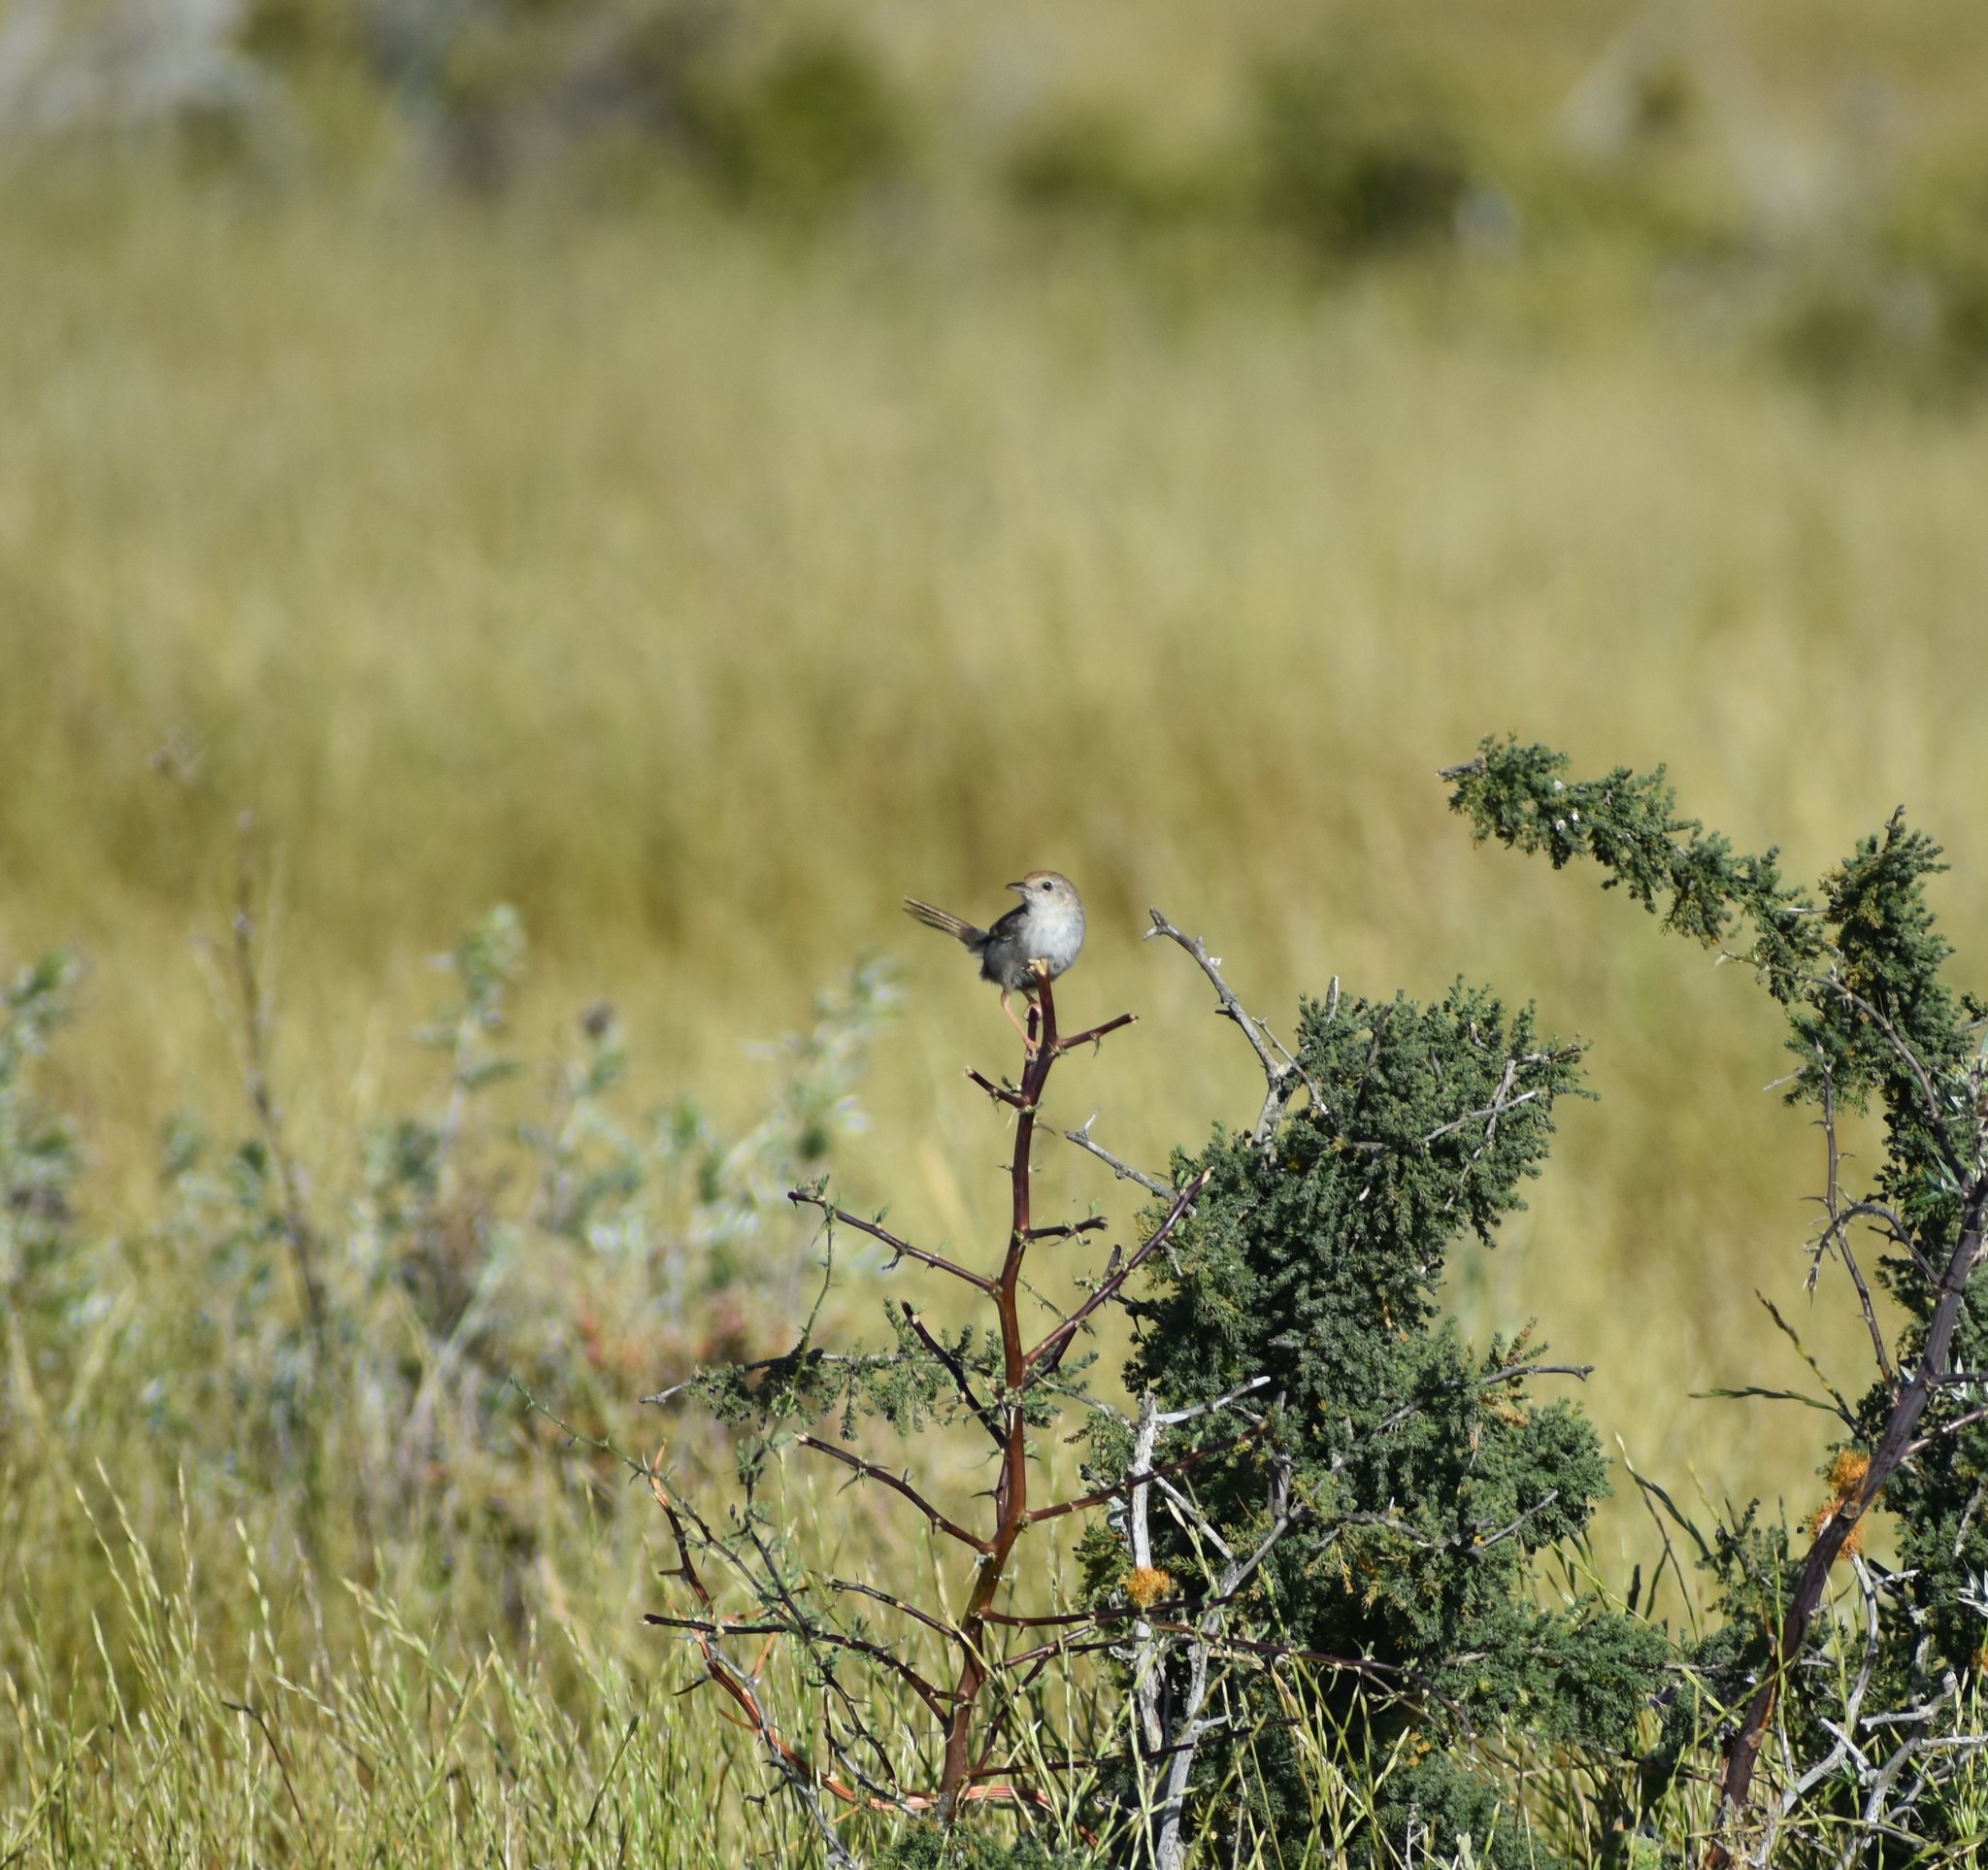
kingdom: Animalia
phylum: Chordata
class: Aves
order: Passeriformes
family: Cisticolidae
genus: Cisticola
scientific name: Cisticola subruficapilla
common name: Grey-backed cisticola
